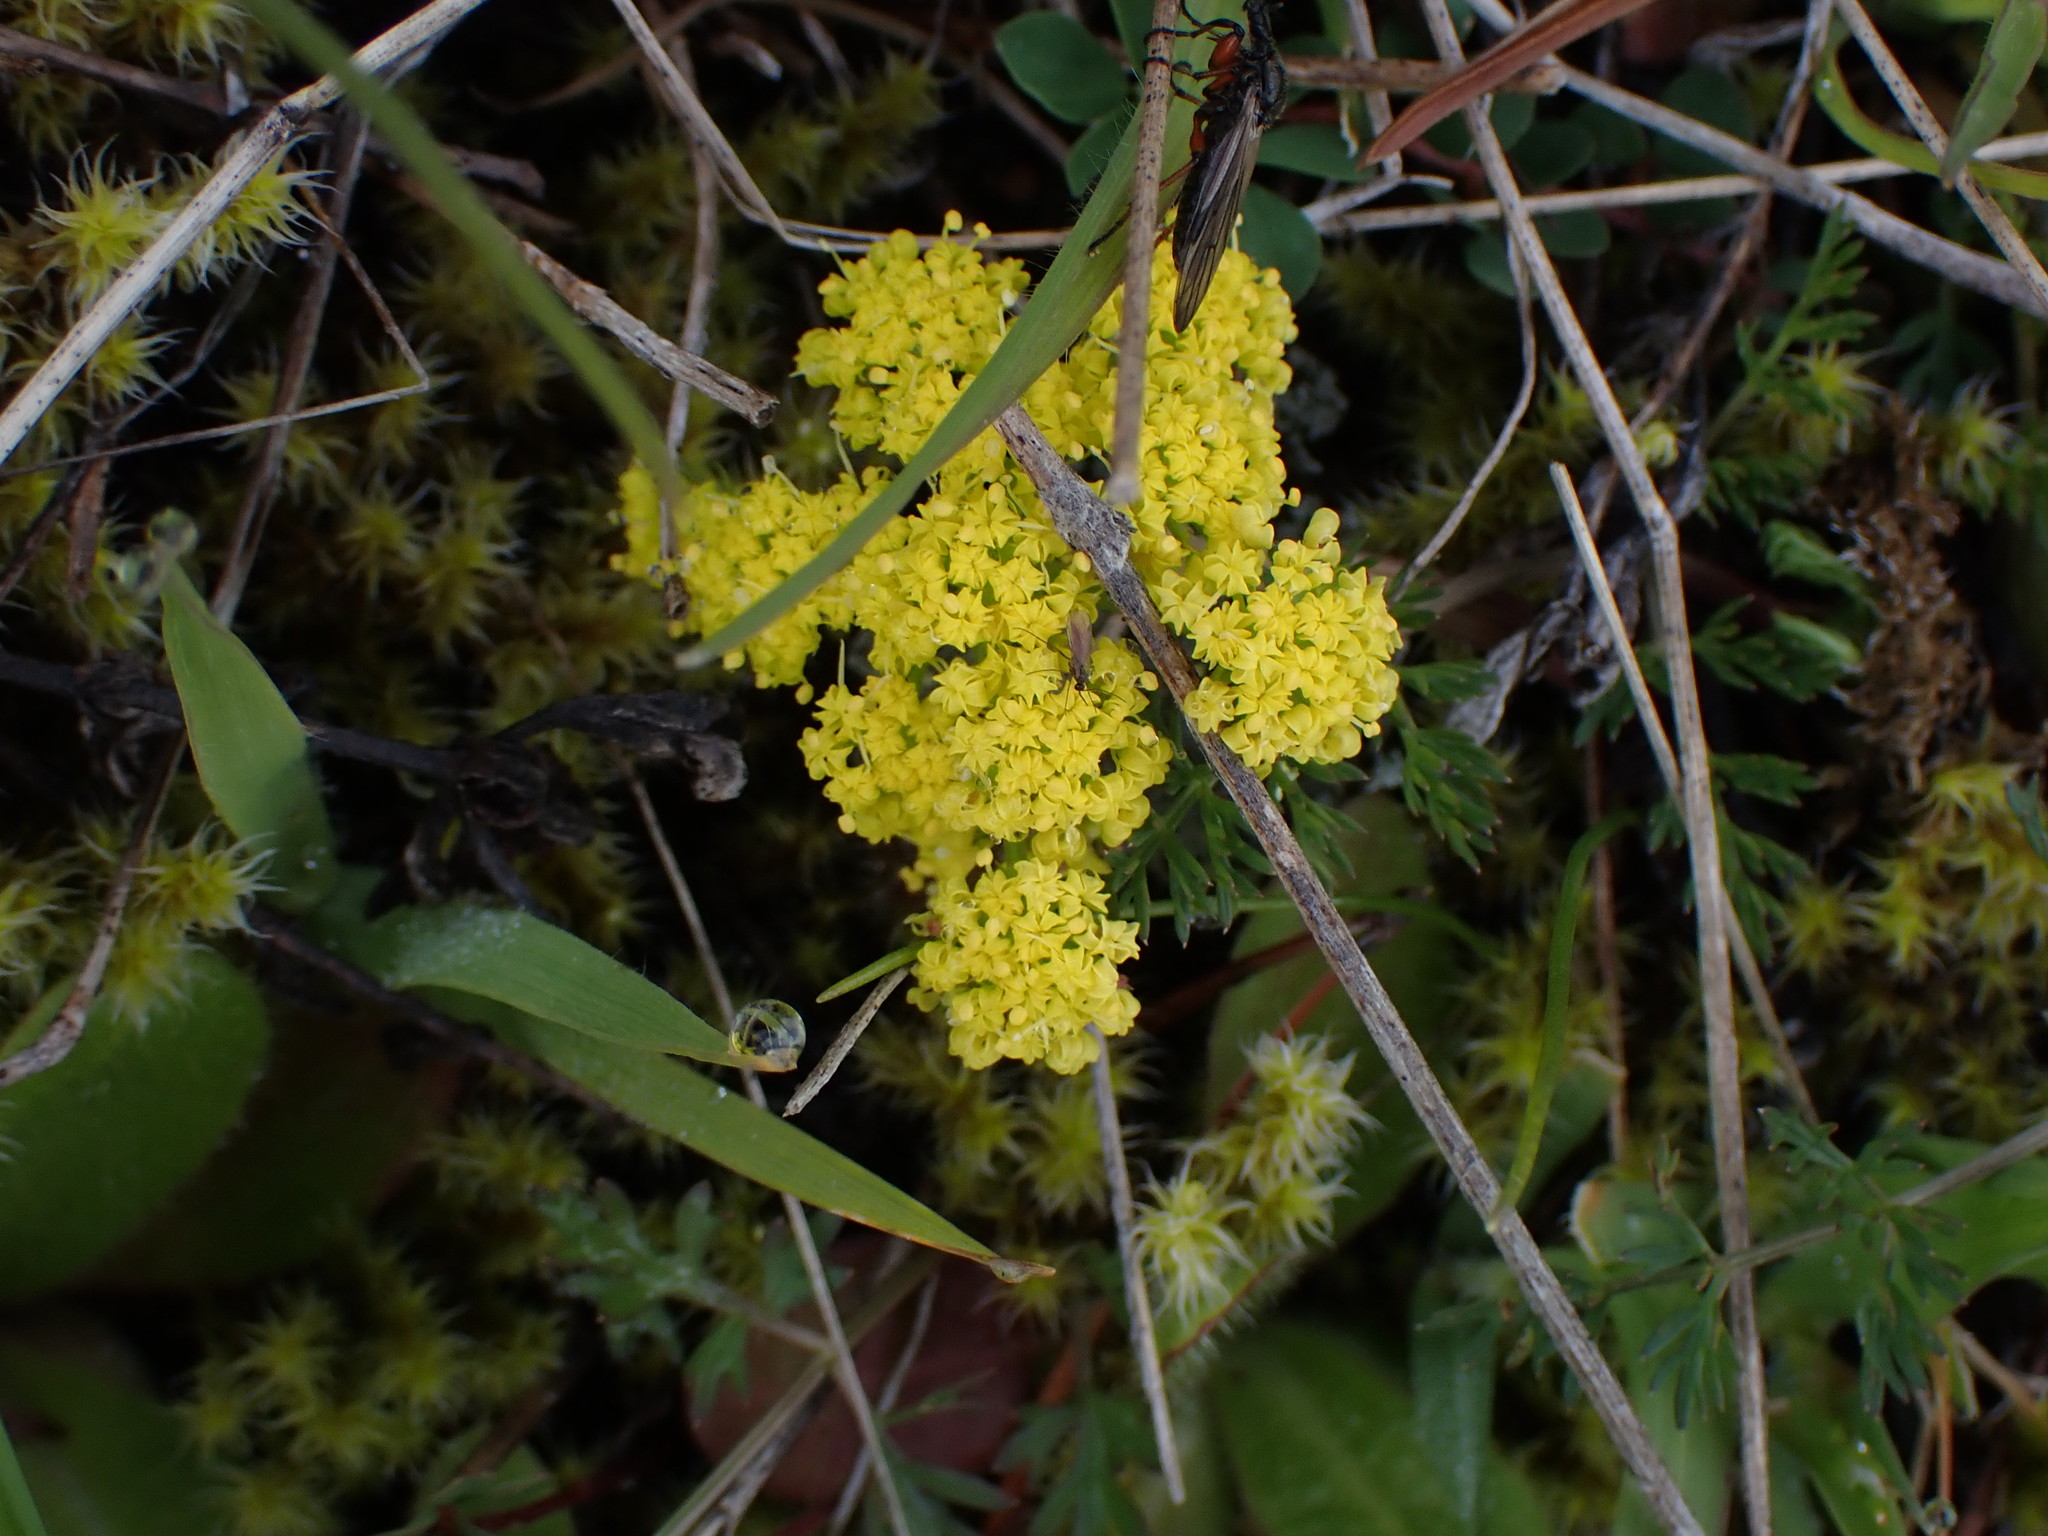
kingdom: Plantae
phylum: Tracheophyta
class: Magnoliopsida
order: Apiales
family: Apiaceae
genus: Lomatium
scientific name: Lomatium utriculatum
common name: Fine-leaf desert-parsley
